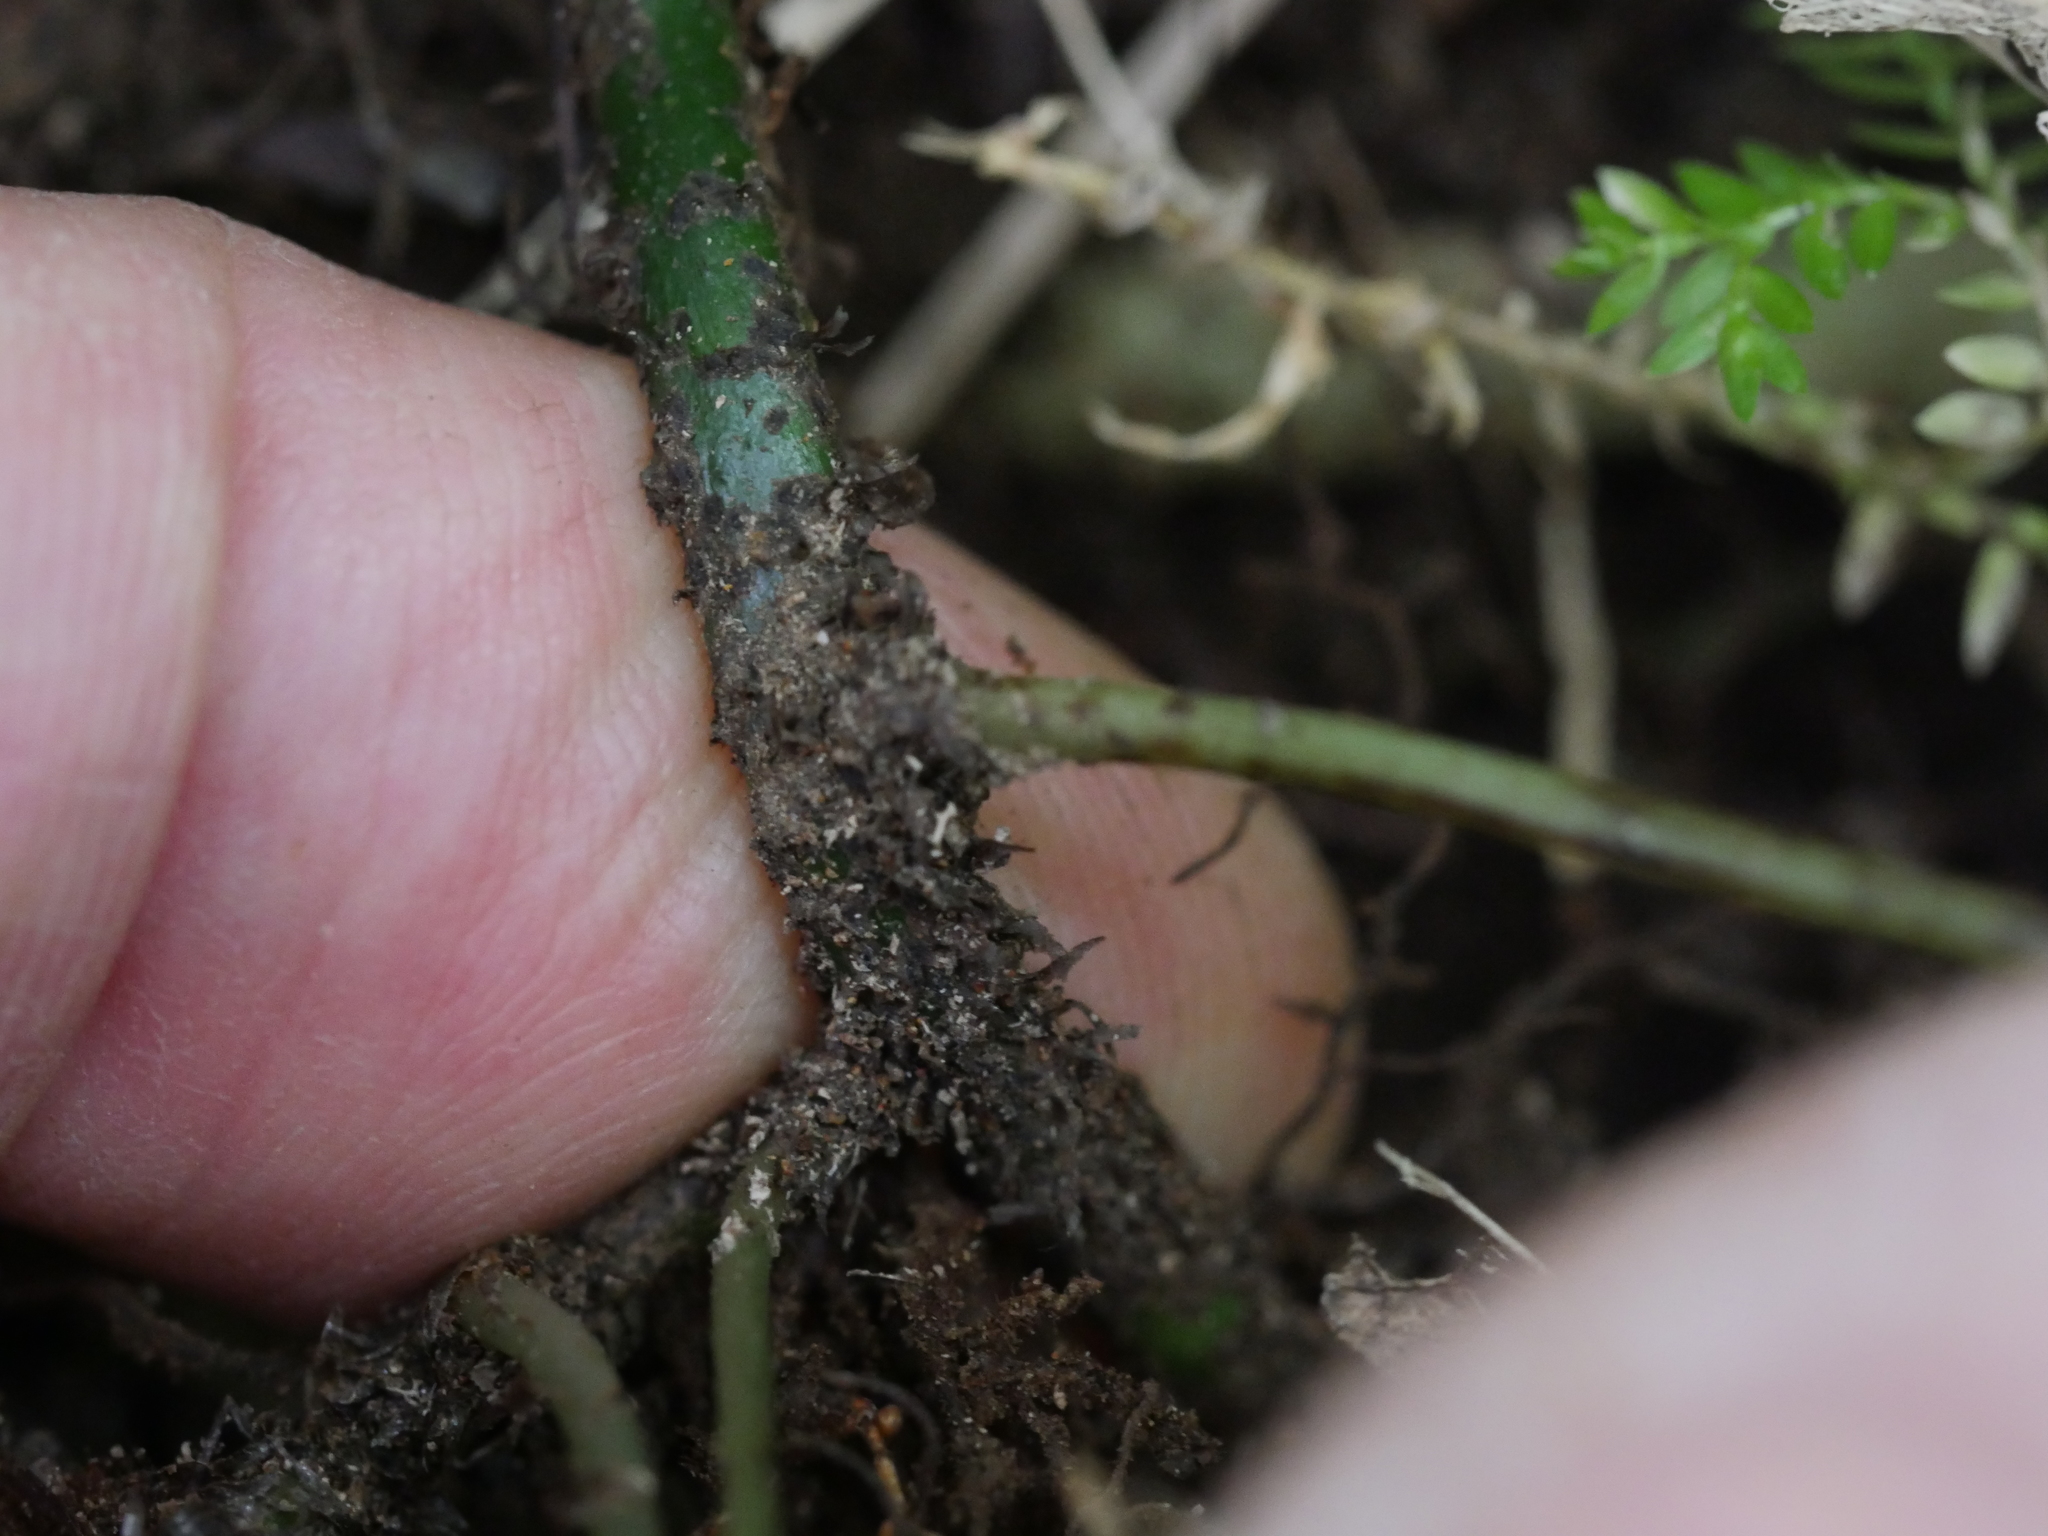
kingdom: Plantae
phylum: Tracheophyta
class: Polypodiopsida
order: Polypodiales
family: Polypodiaceae
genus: Lecanopteris
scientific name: Lecanopteris scandens
